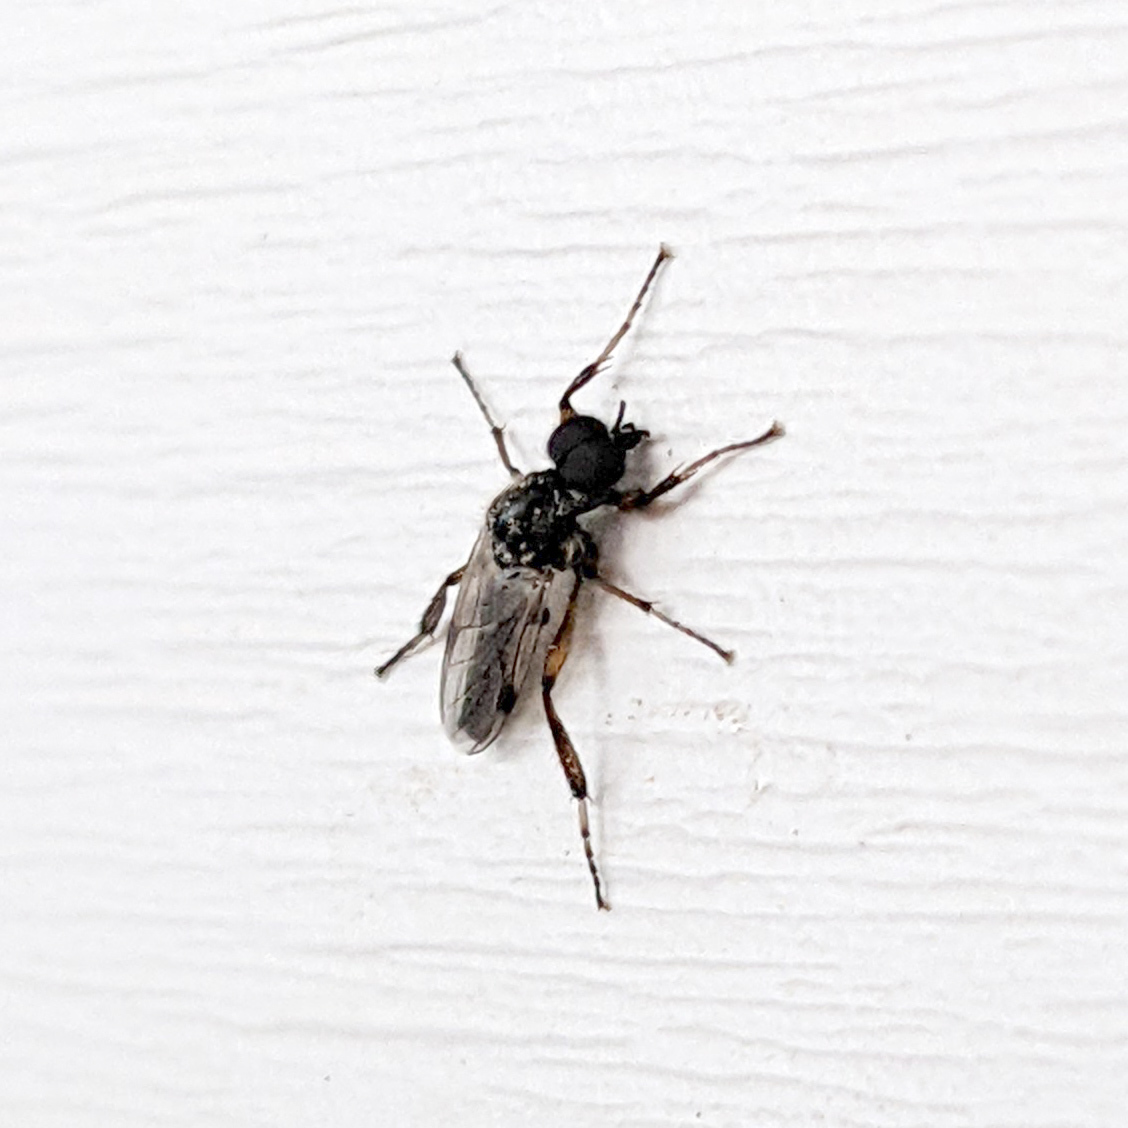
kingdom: Animalia
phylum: Arthropoda
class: Insecta
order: Diptera
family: Bibionidae
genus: Bibio
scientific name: Bibio
